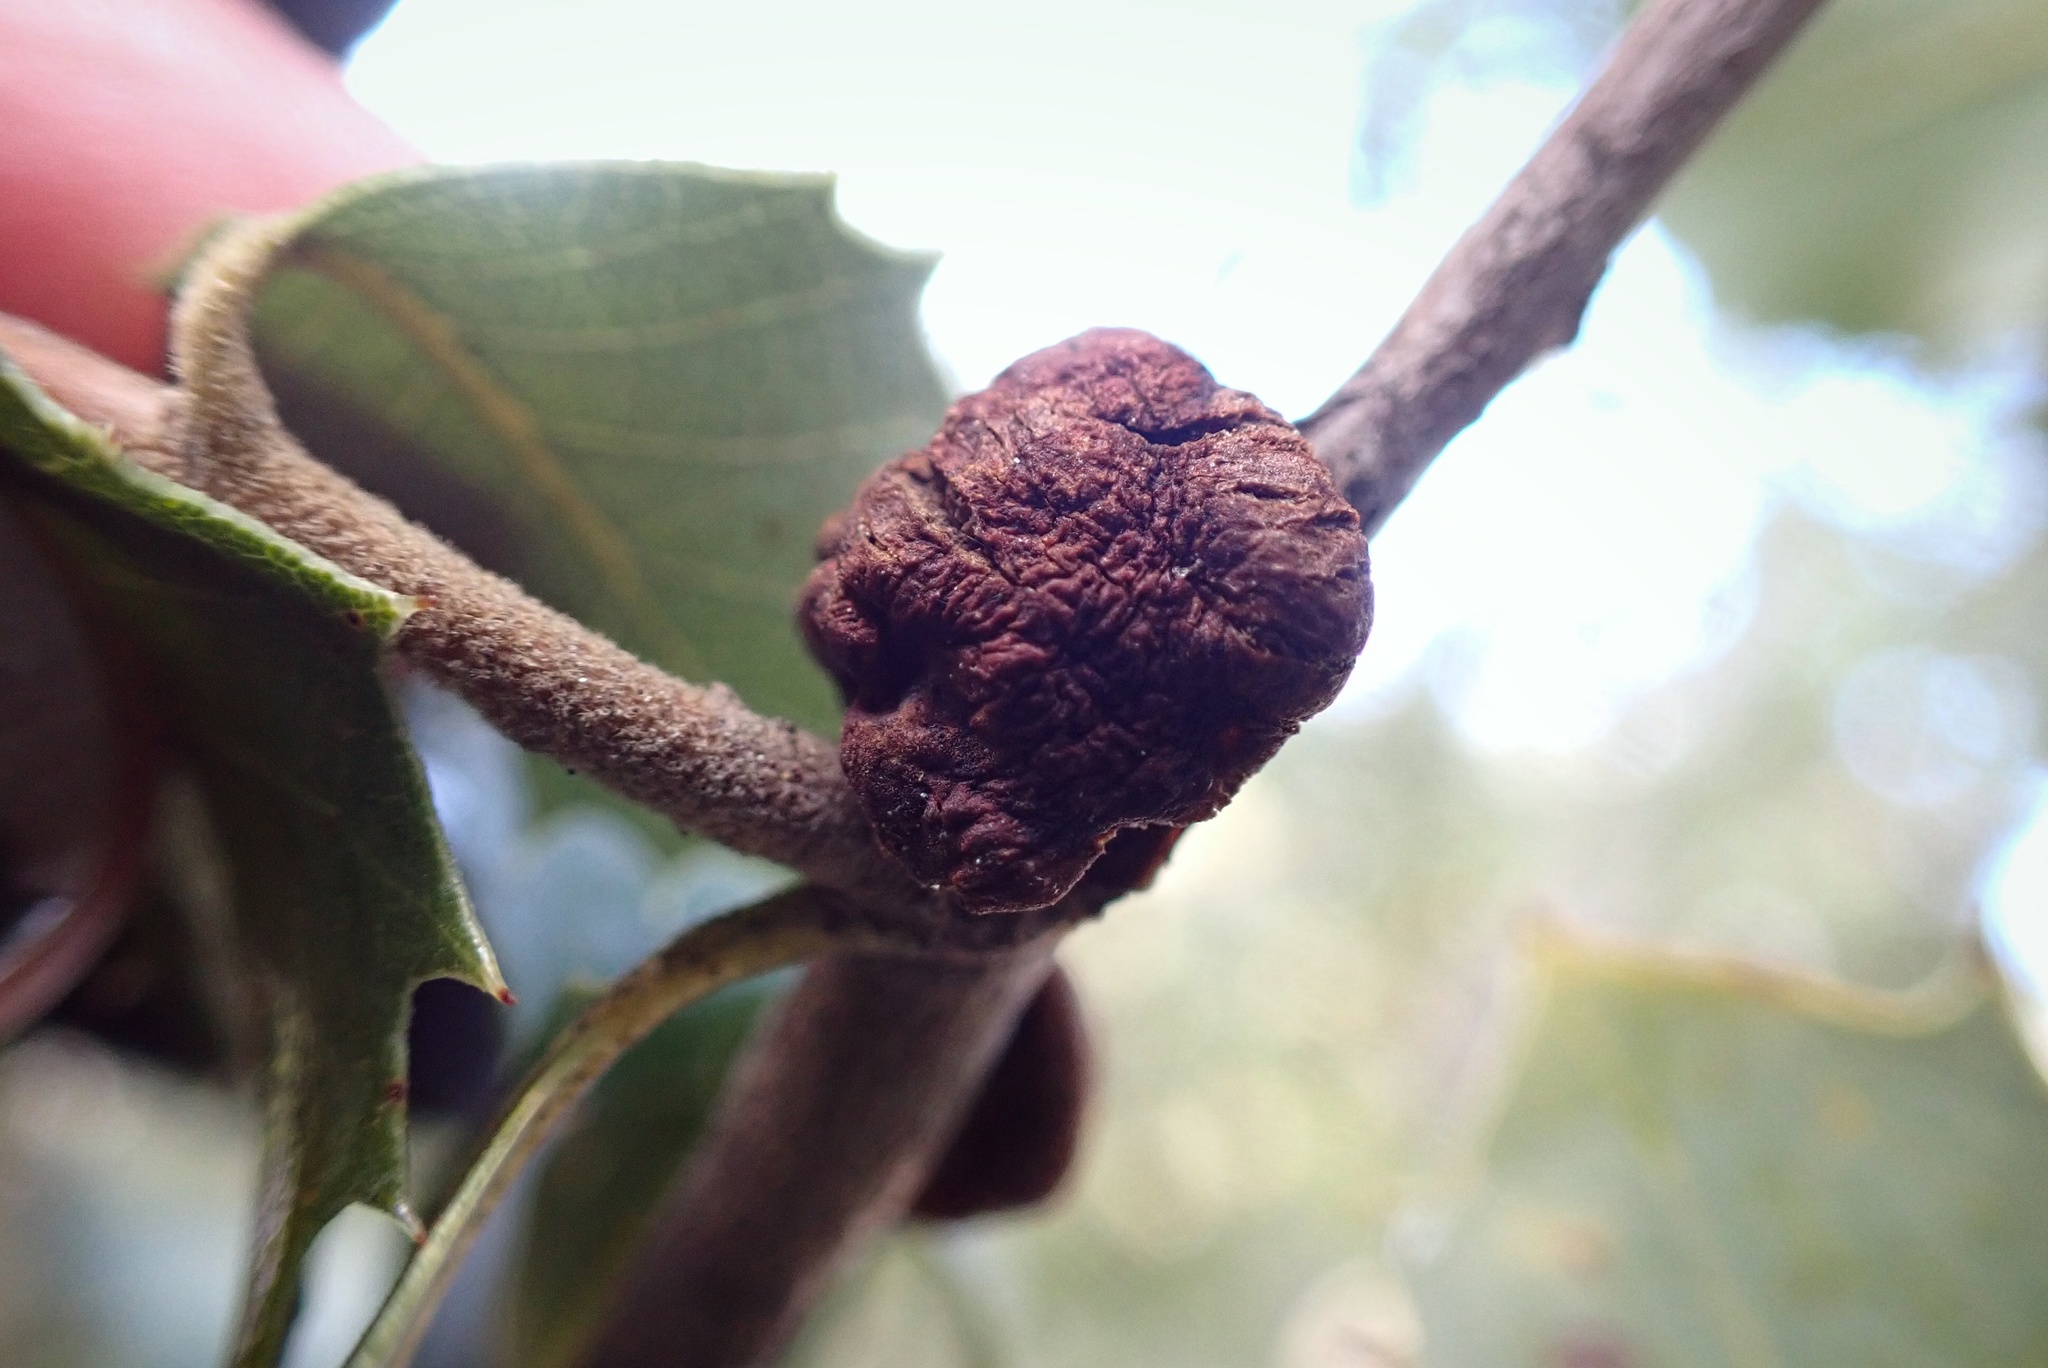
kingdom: Animalia
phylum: Arthropoda
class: Insecta
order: Hymenoptera
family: Cynipidae
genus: Disholandricus
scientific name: Disholandricus
